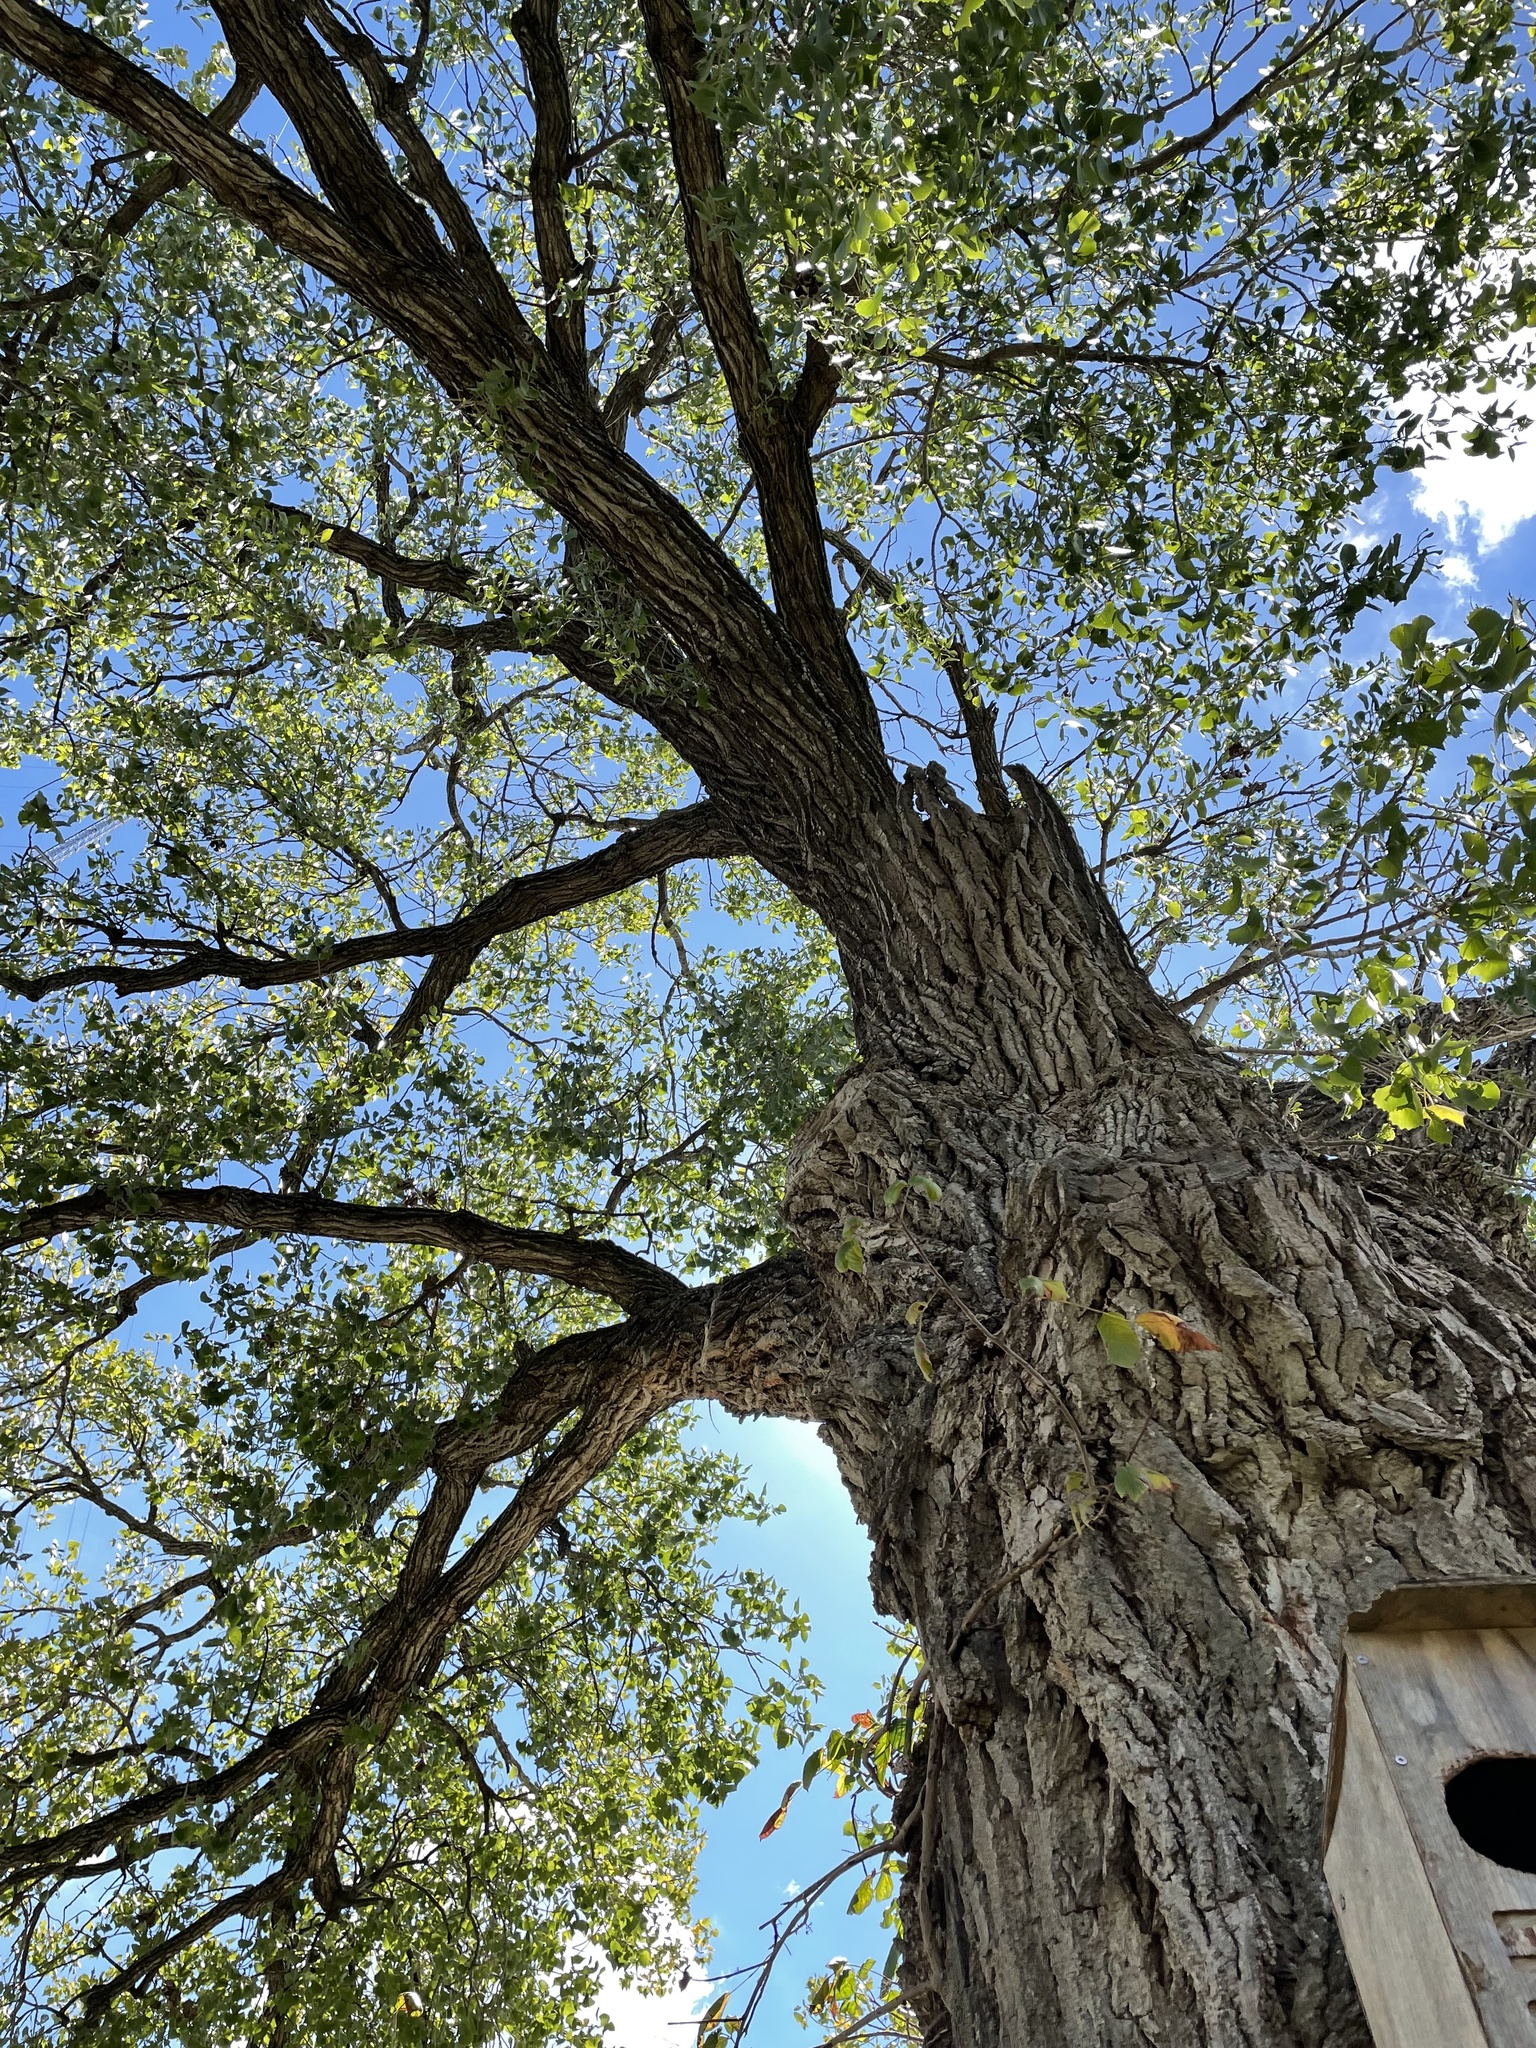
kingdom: Plantae
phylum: Tracheophyta
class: Magnoliopsida
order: Malpighiales
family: Salicaceae
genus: Populus
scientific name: Populus deltoides
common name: Eastern cottonwood
